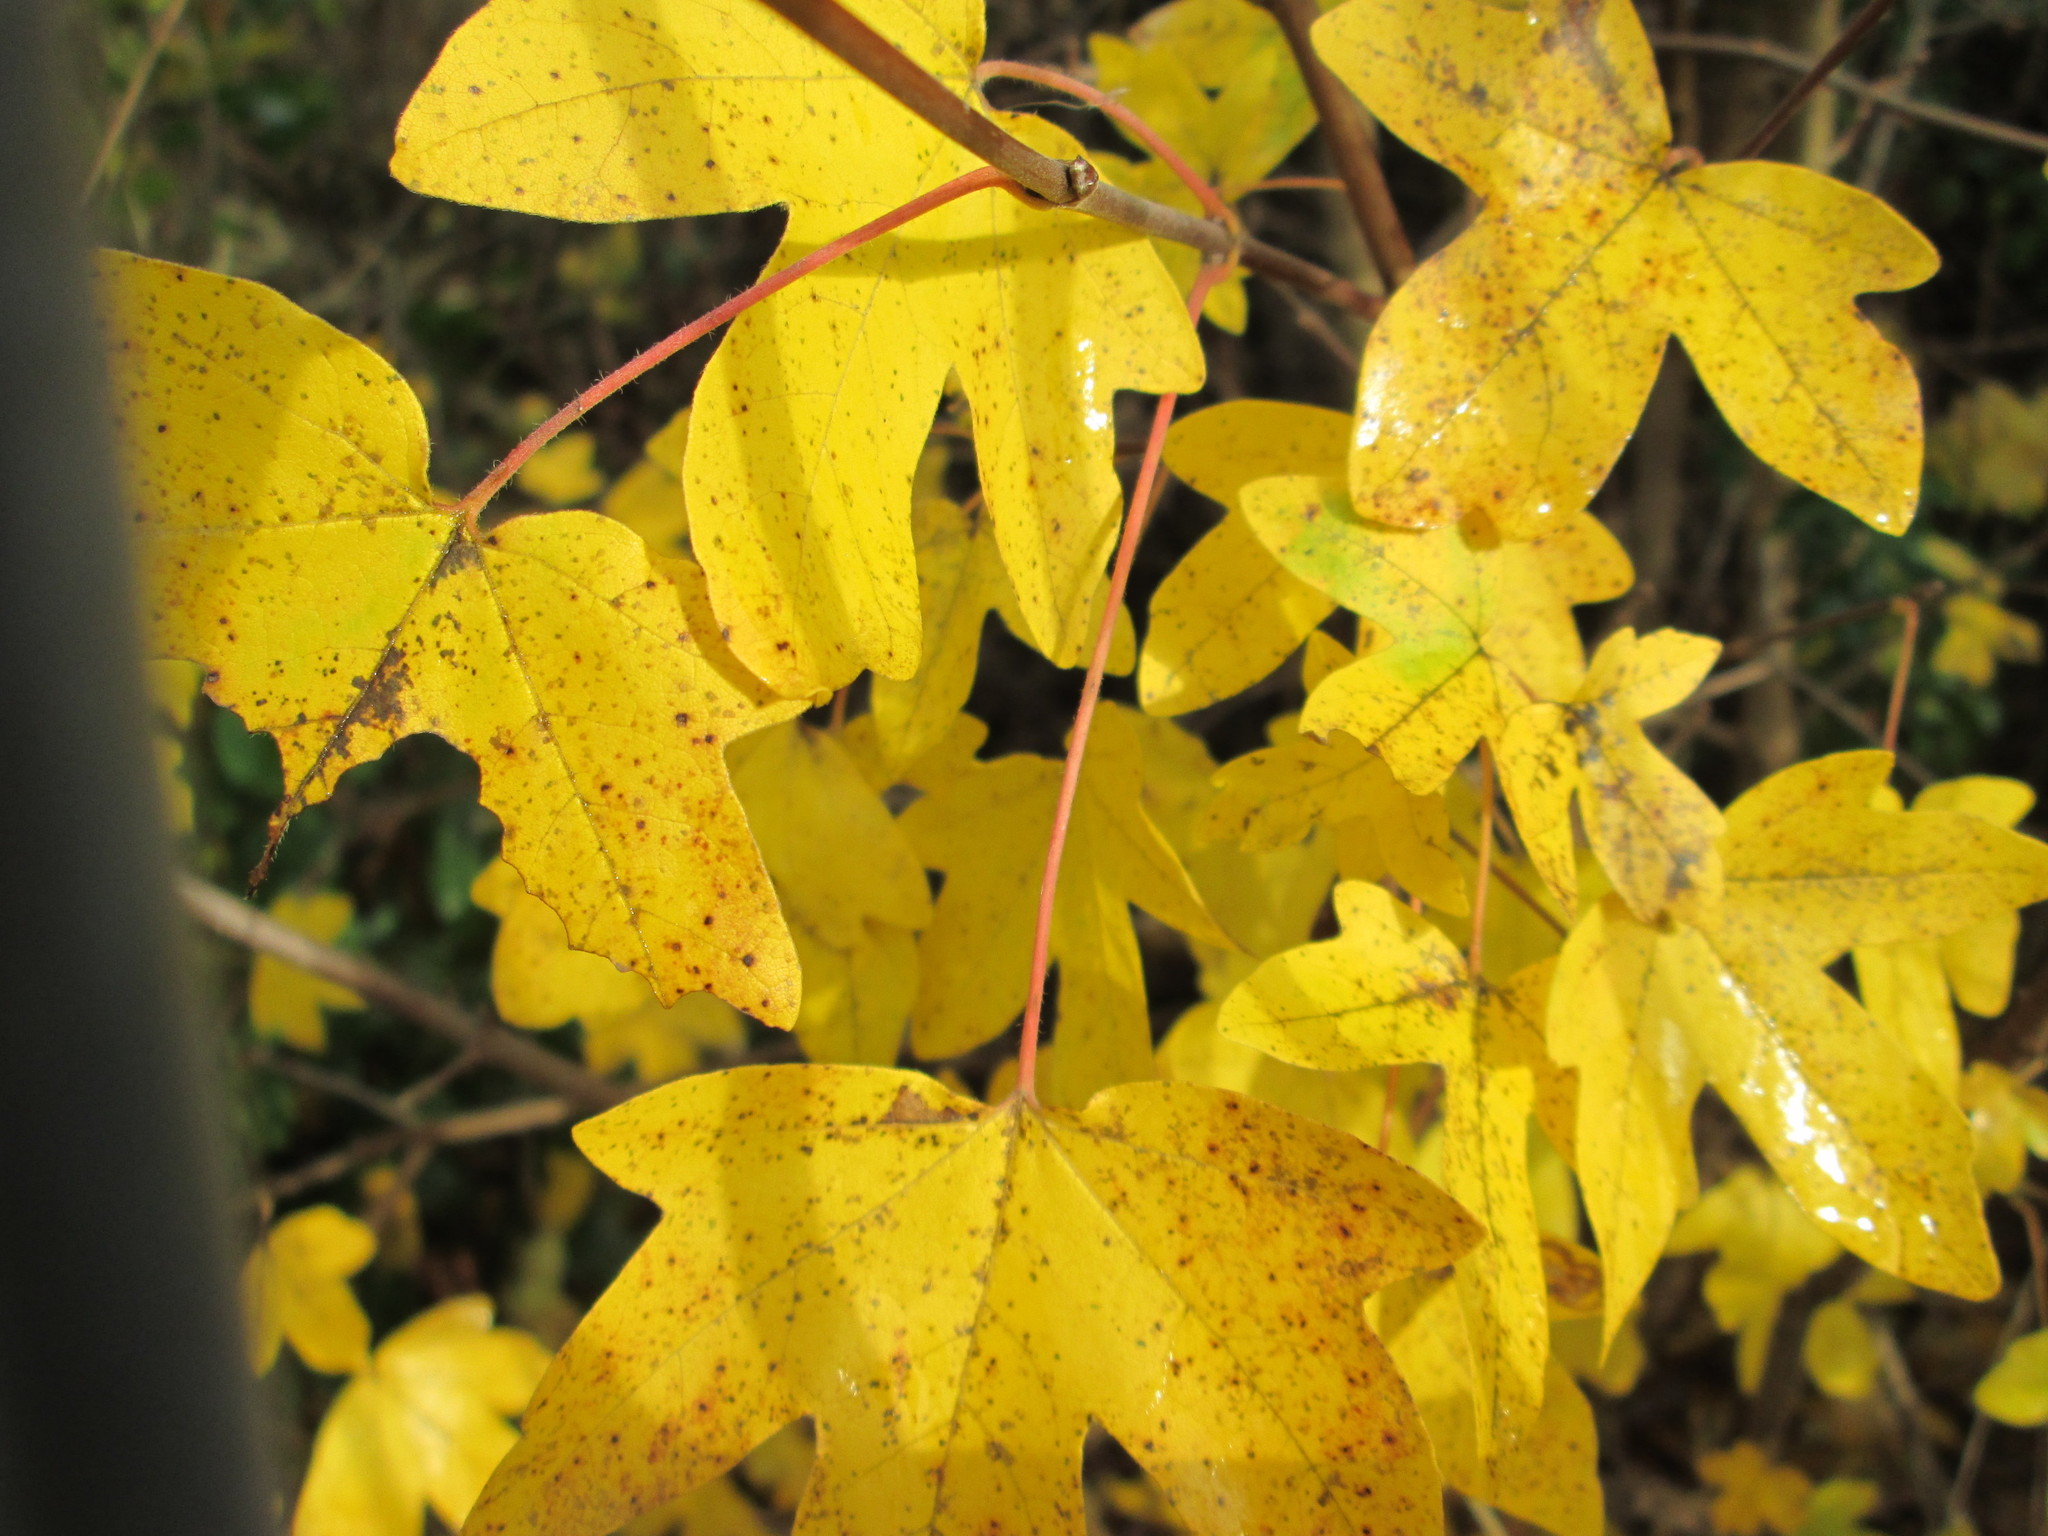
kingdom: Plantae
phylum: Tracheophyta
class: Magnoliopsida
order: Sapindales
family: Sapindaceae
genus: Acer
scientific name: Acer campestre
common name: Field maple
